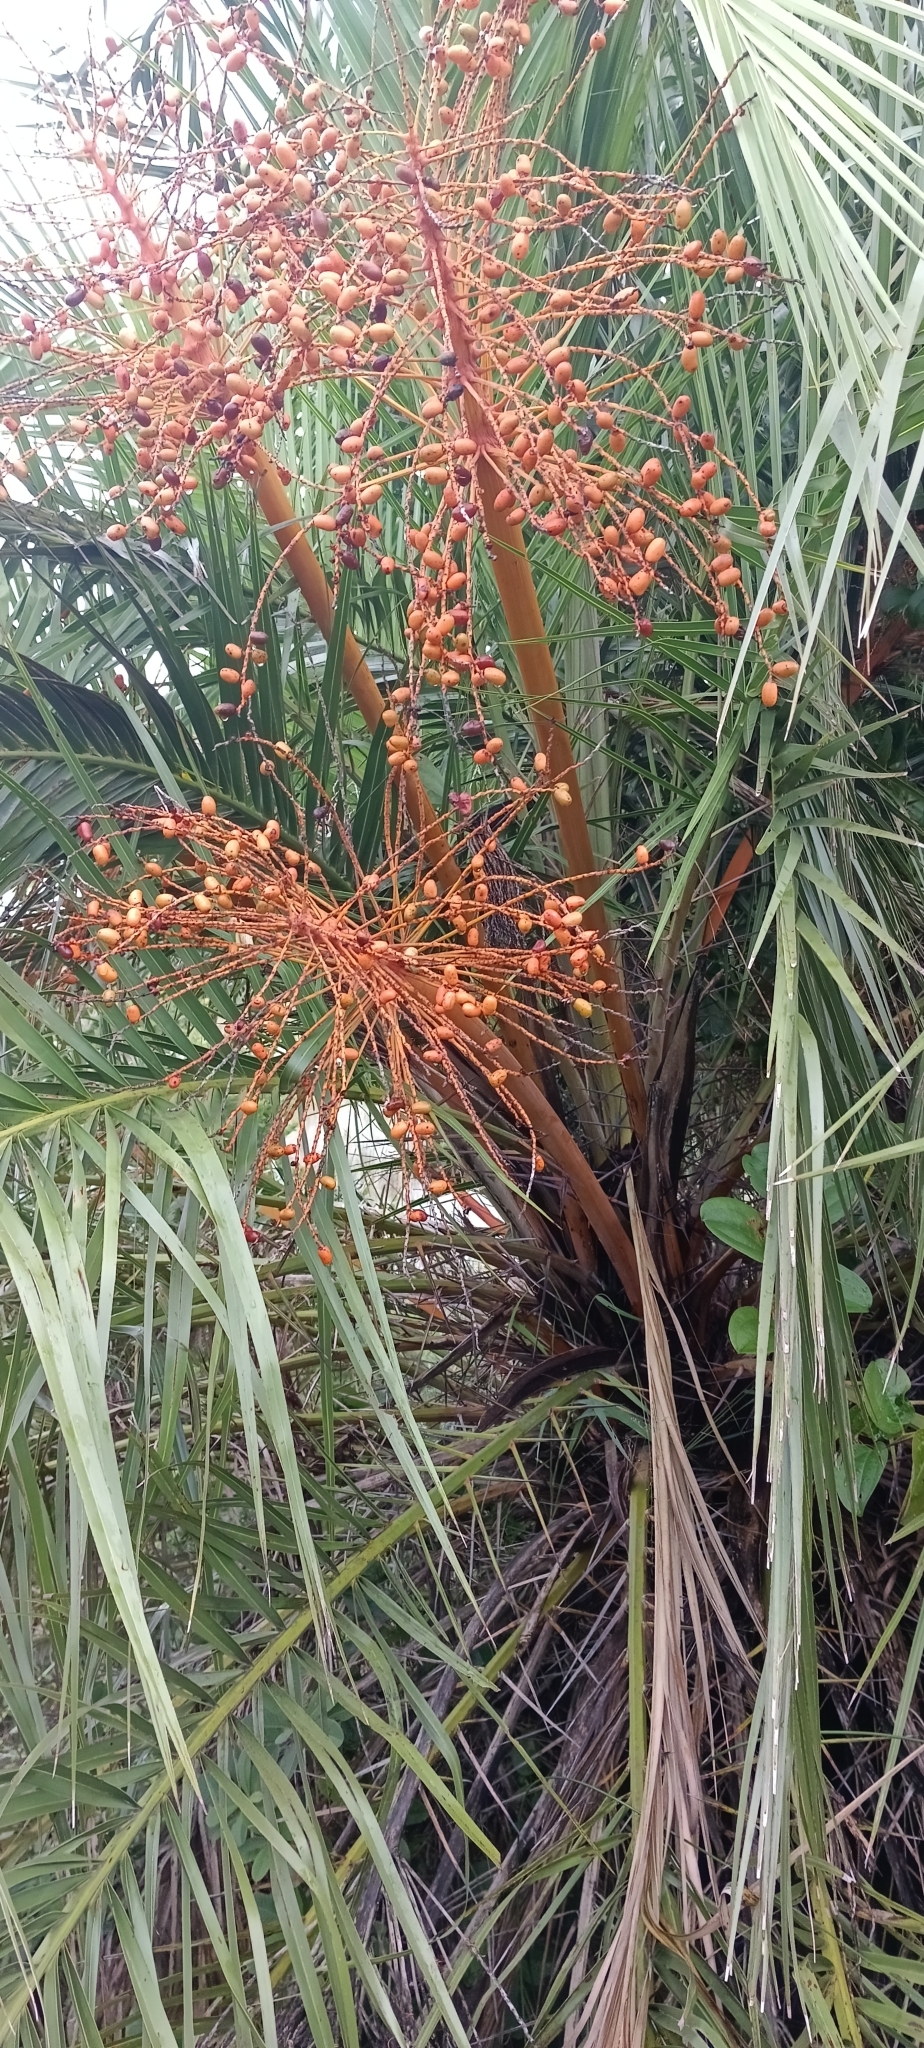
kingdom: Plantae
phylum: Tracheophyta
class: Liliopsida
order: Arecales
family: Arecaceae
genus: Phoenix
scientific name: Phoenix reclinata
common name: Senegal date palm
